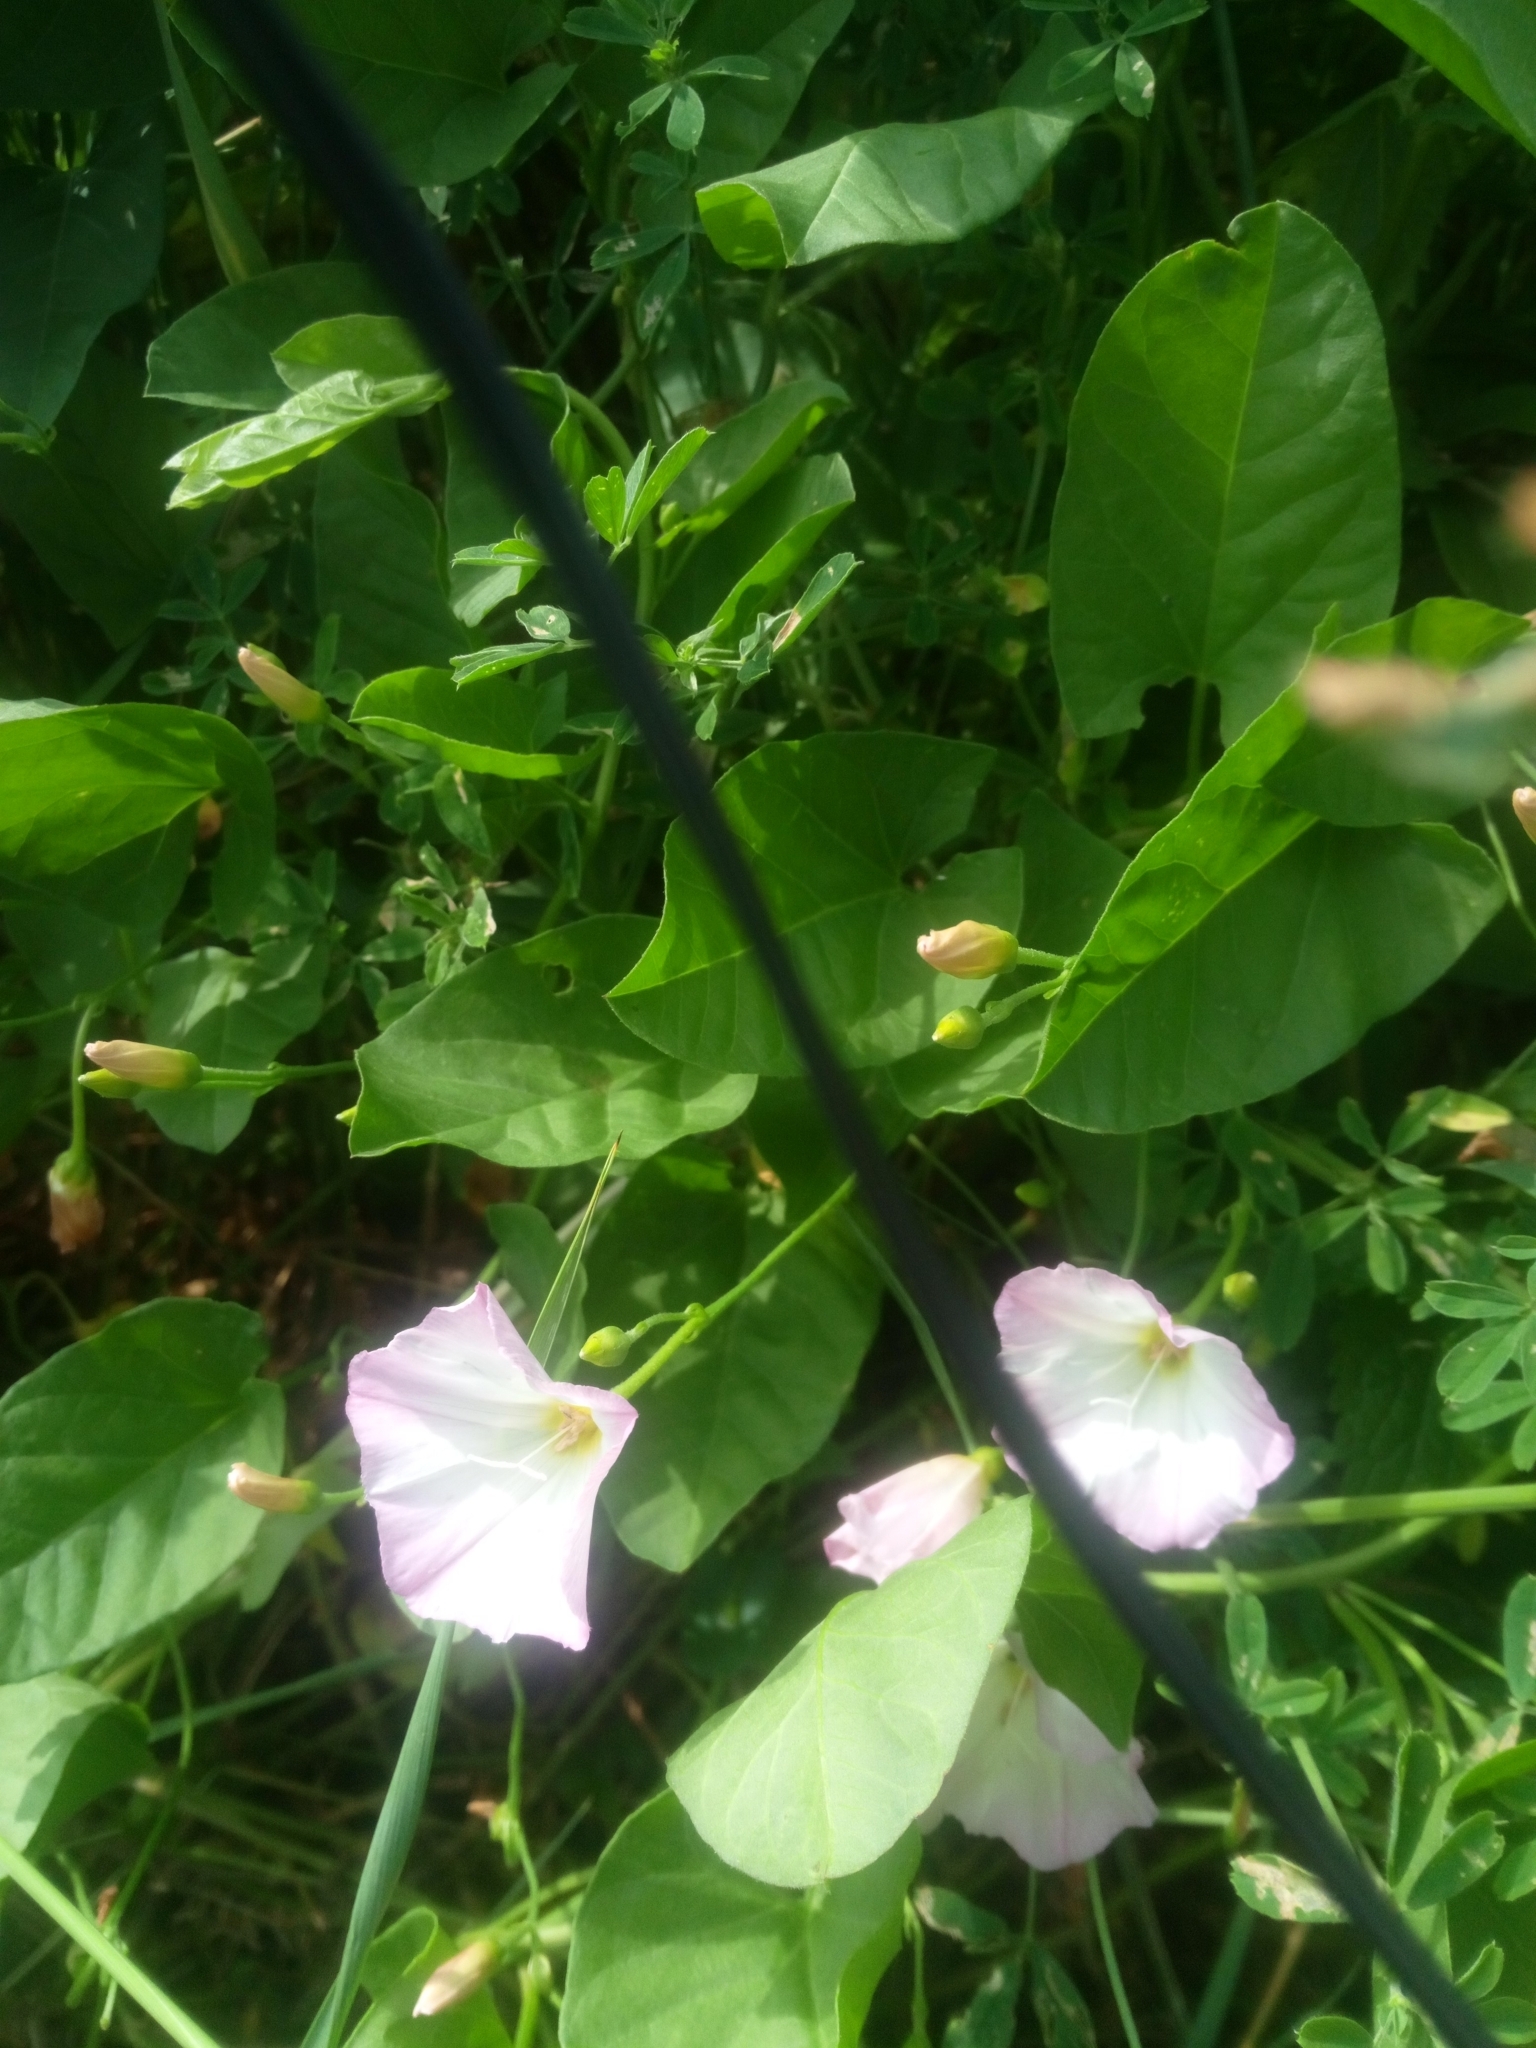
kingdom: Plantae
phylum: Tracheophyta
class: Magnoliopsida
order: Solanales
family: Convolvulaceae
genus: Convolvulus
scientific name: Convolvulus arvensis
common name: Field bindweed
